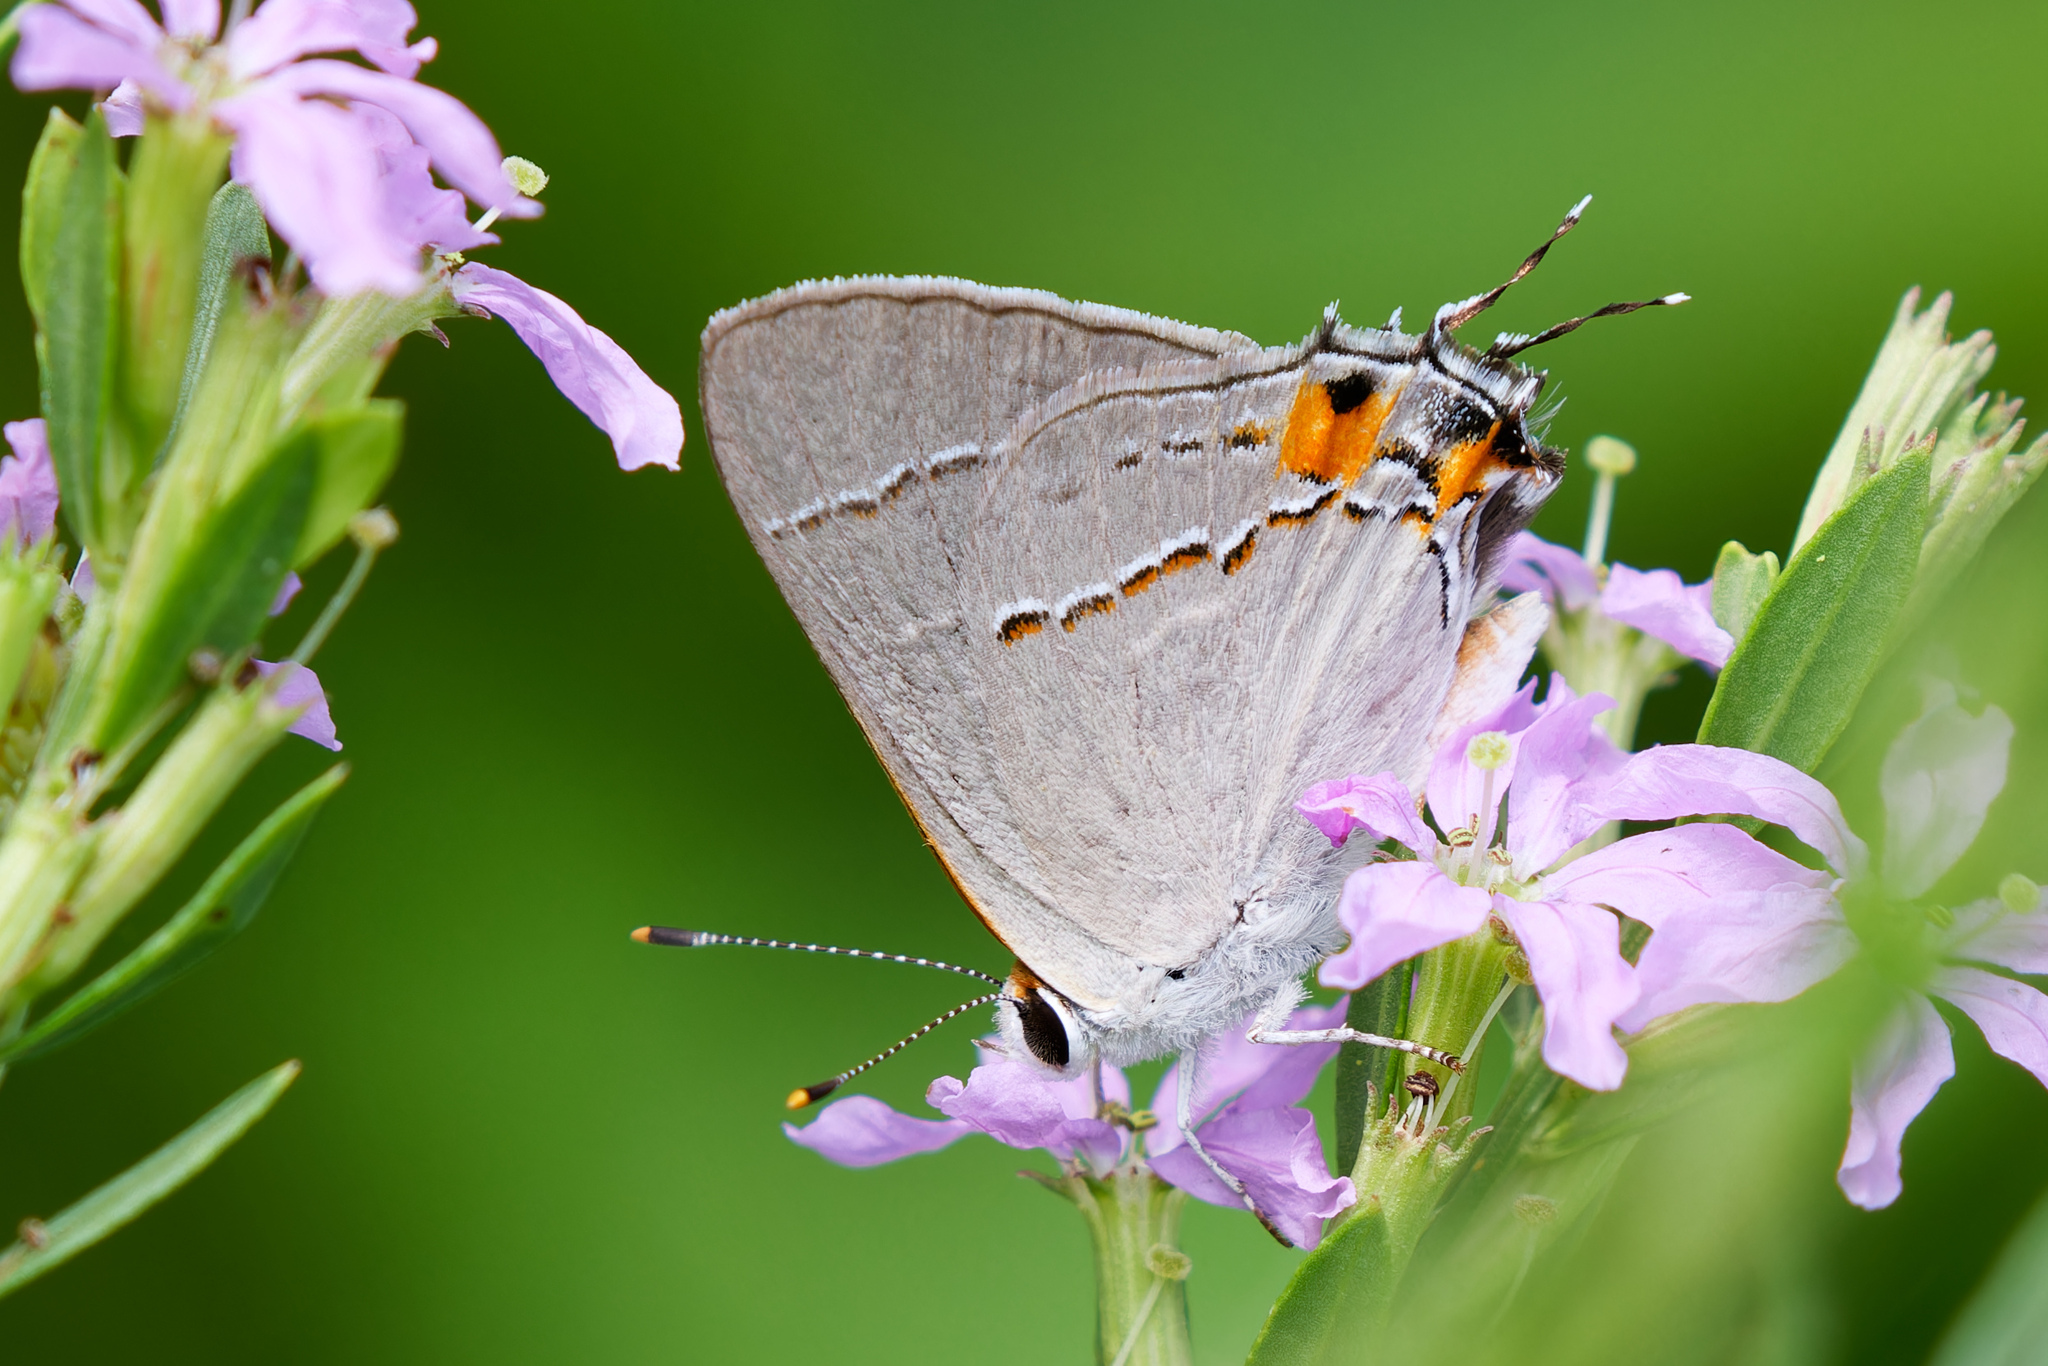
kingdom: Animalia
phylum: Arthropoda
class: Insecta
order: Lepidoptera
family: Lycaenidae
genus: Strymon
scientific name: Strymon melinus
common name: Gray hairstreak
